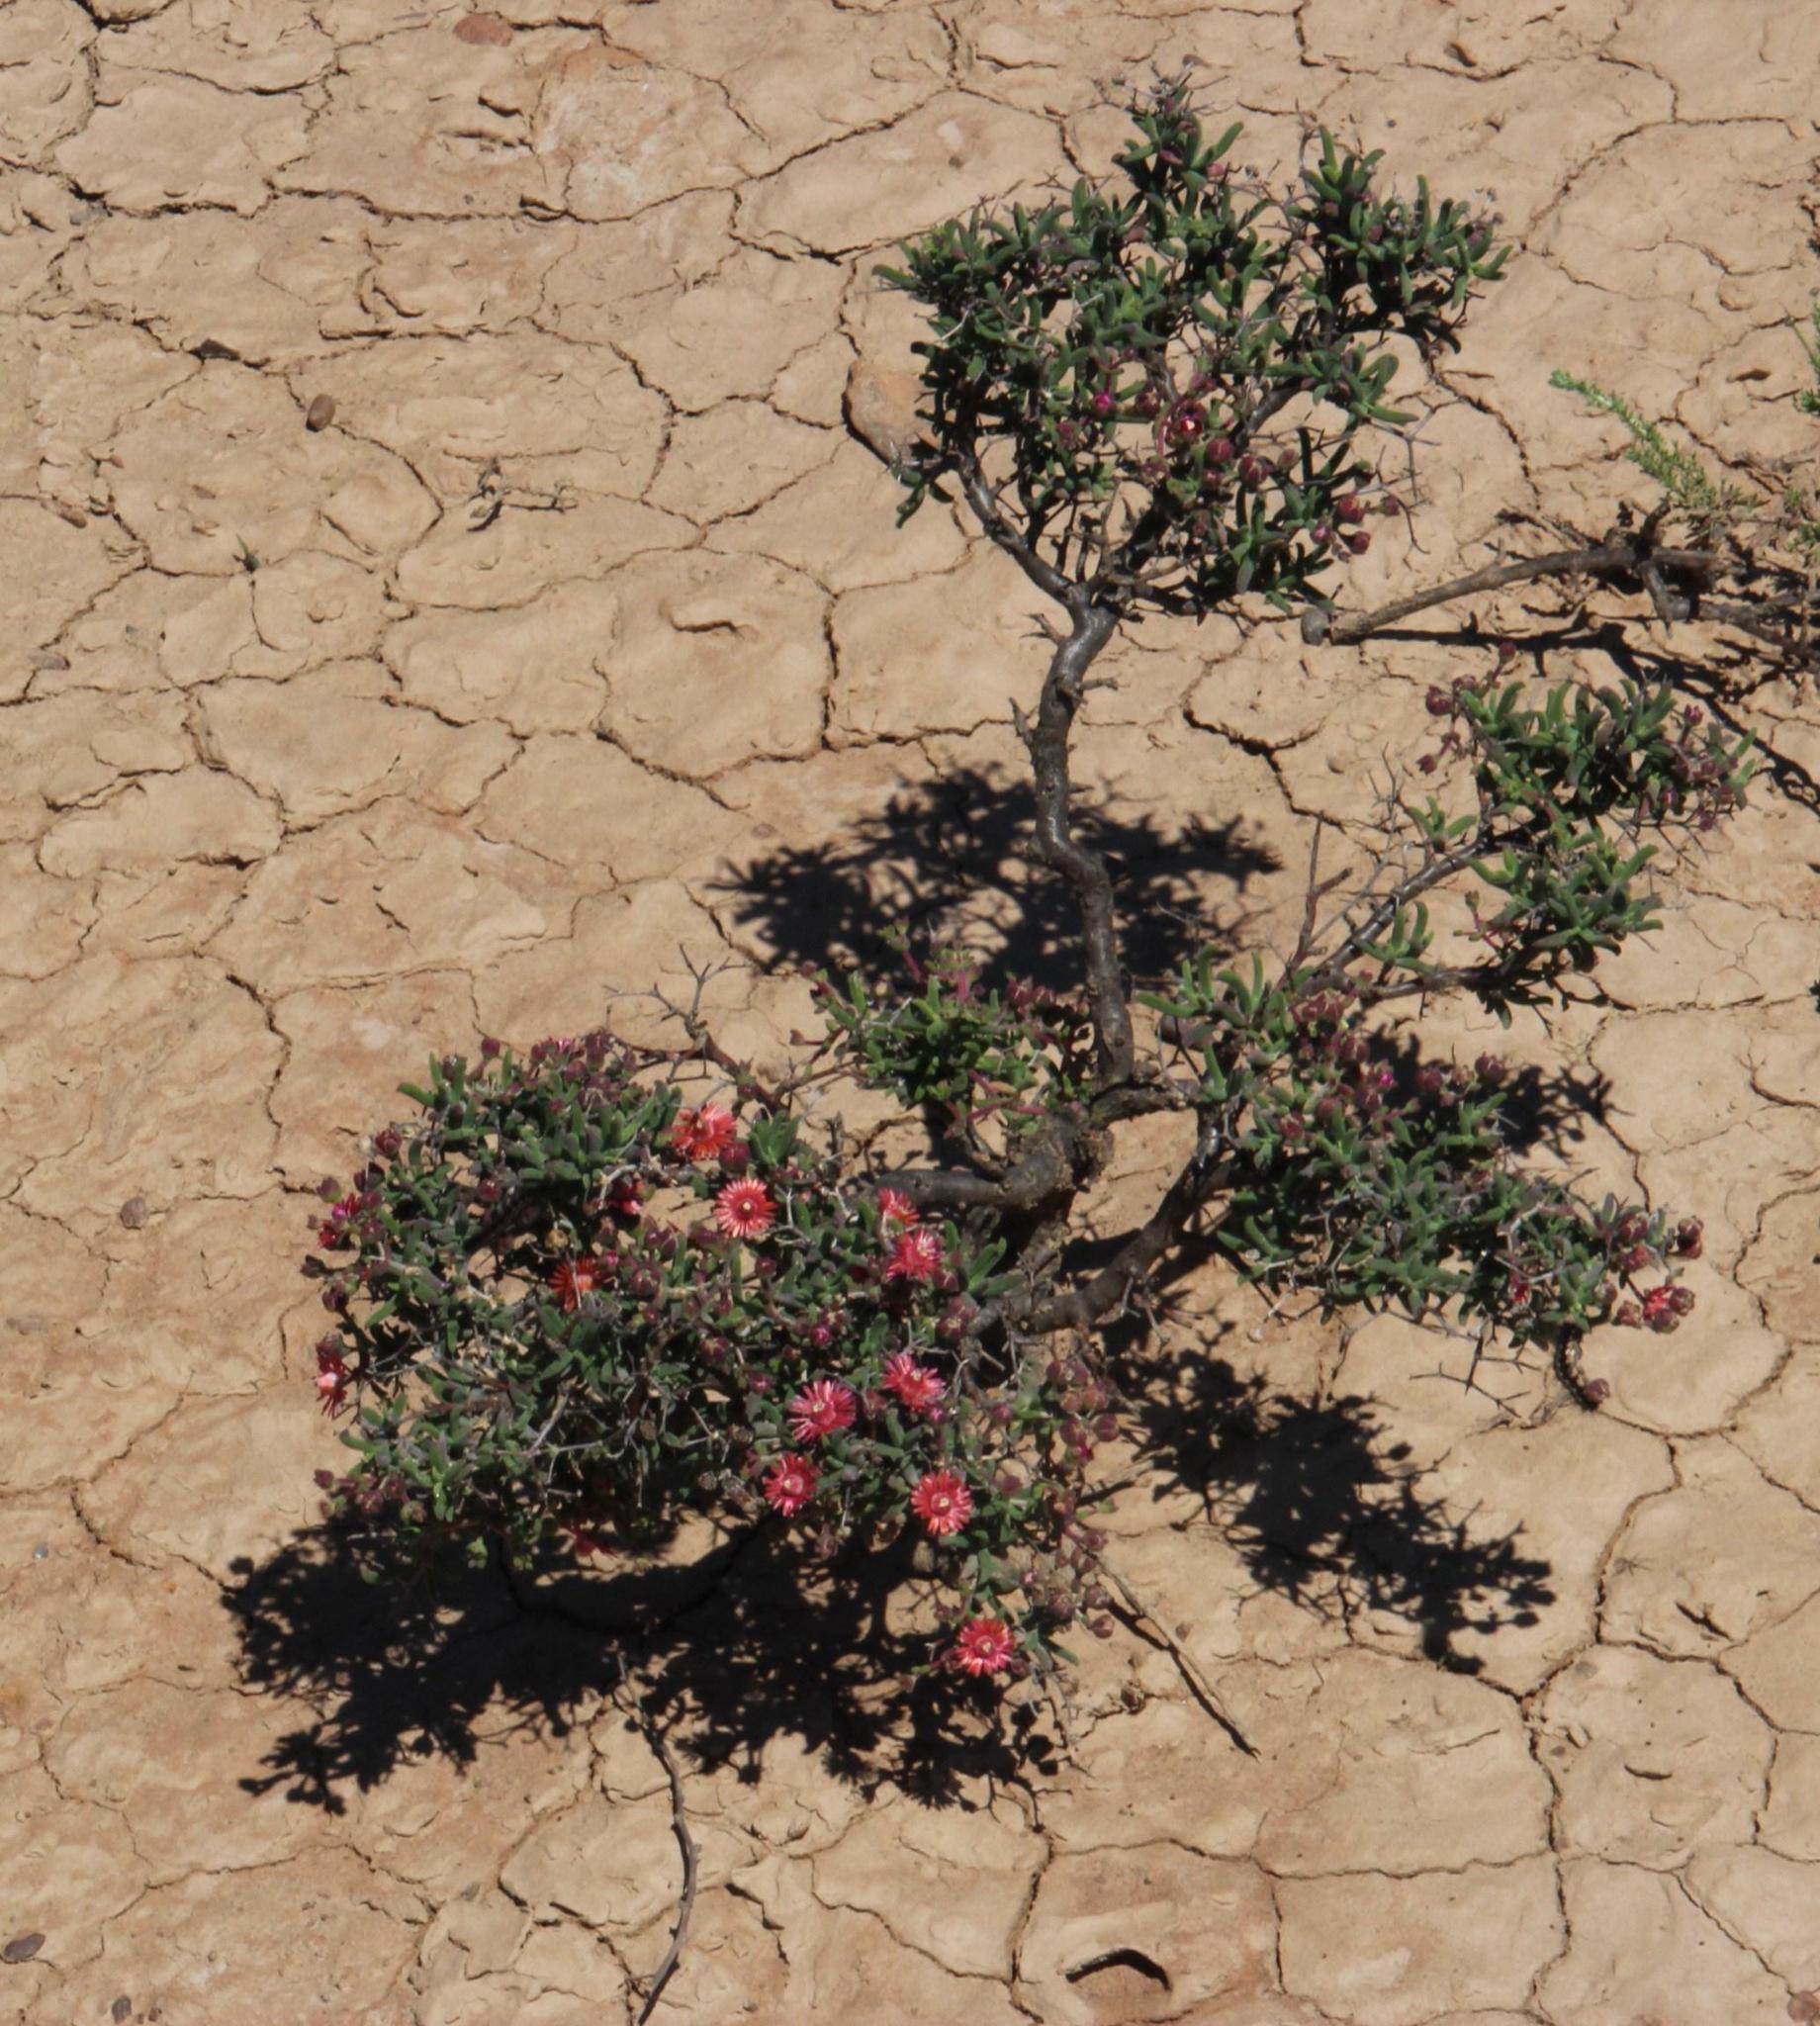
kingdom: Plantae
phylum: Tracheophyta
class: Magnoliopsida
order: Caryophyllales
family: Aizoaceae
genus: Mestoklema
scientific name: Mestoklema tuberosum
